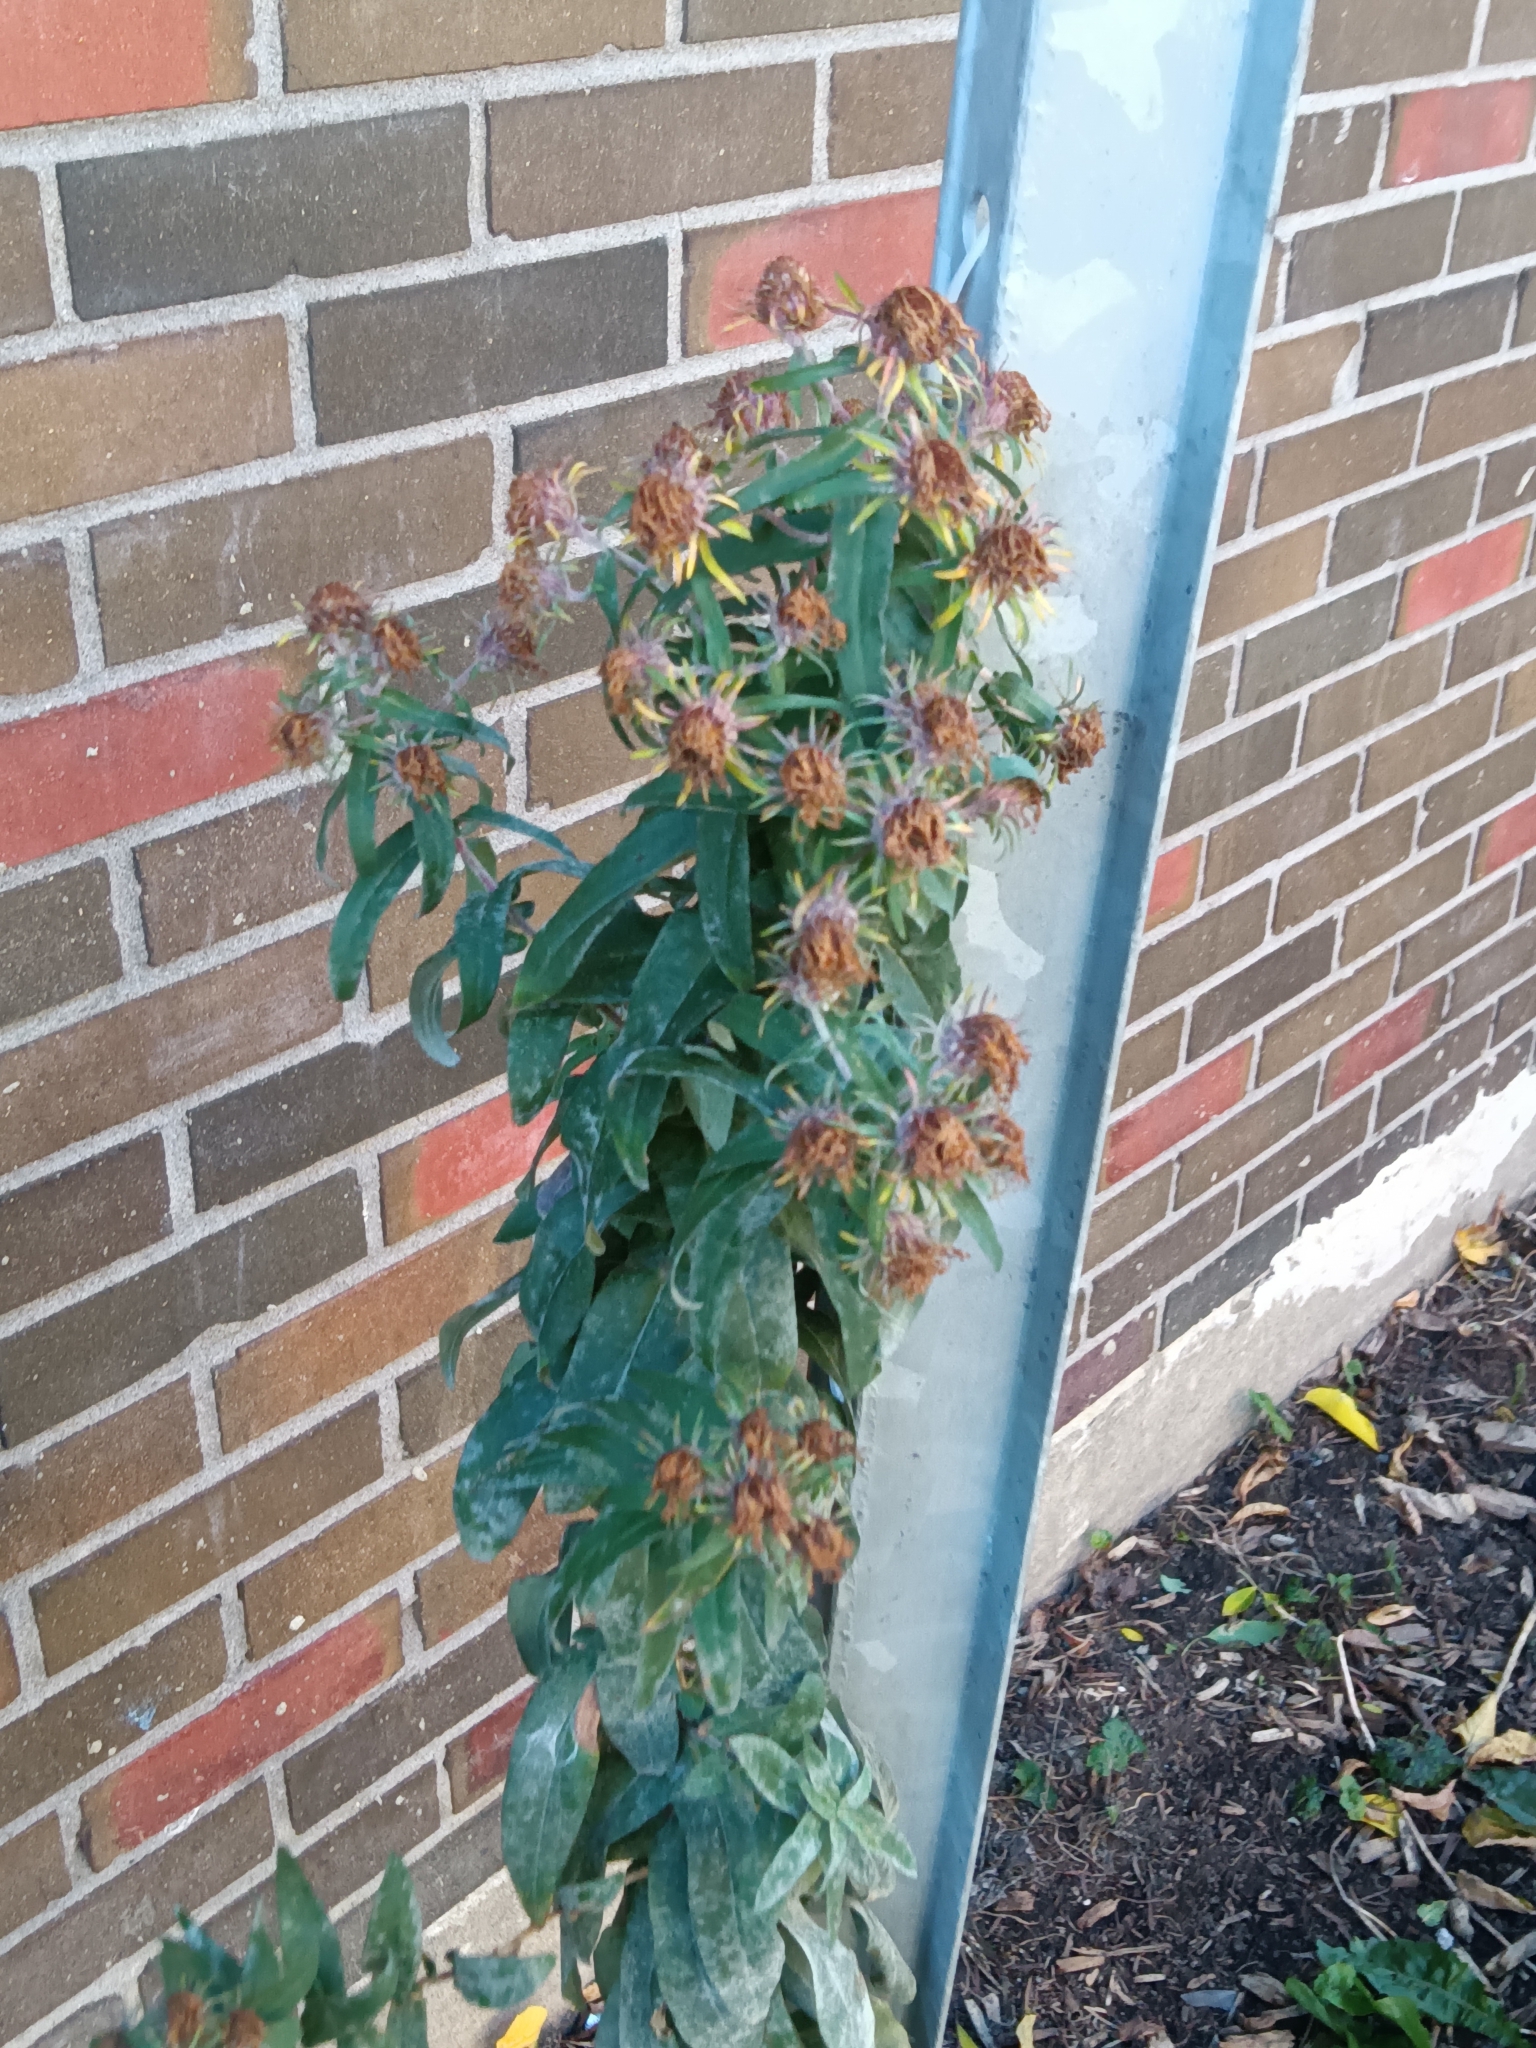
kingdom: Plantae
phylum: Tracheophyta
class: Magnoliopsida
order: Asterales
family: Asteraceae
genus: Symphyotrichum
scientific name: Symphyotrichum novae-angliae
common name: Michaelmas daisy
